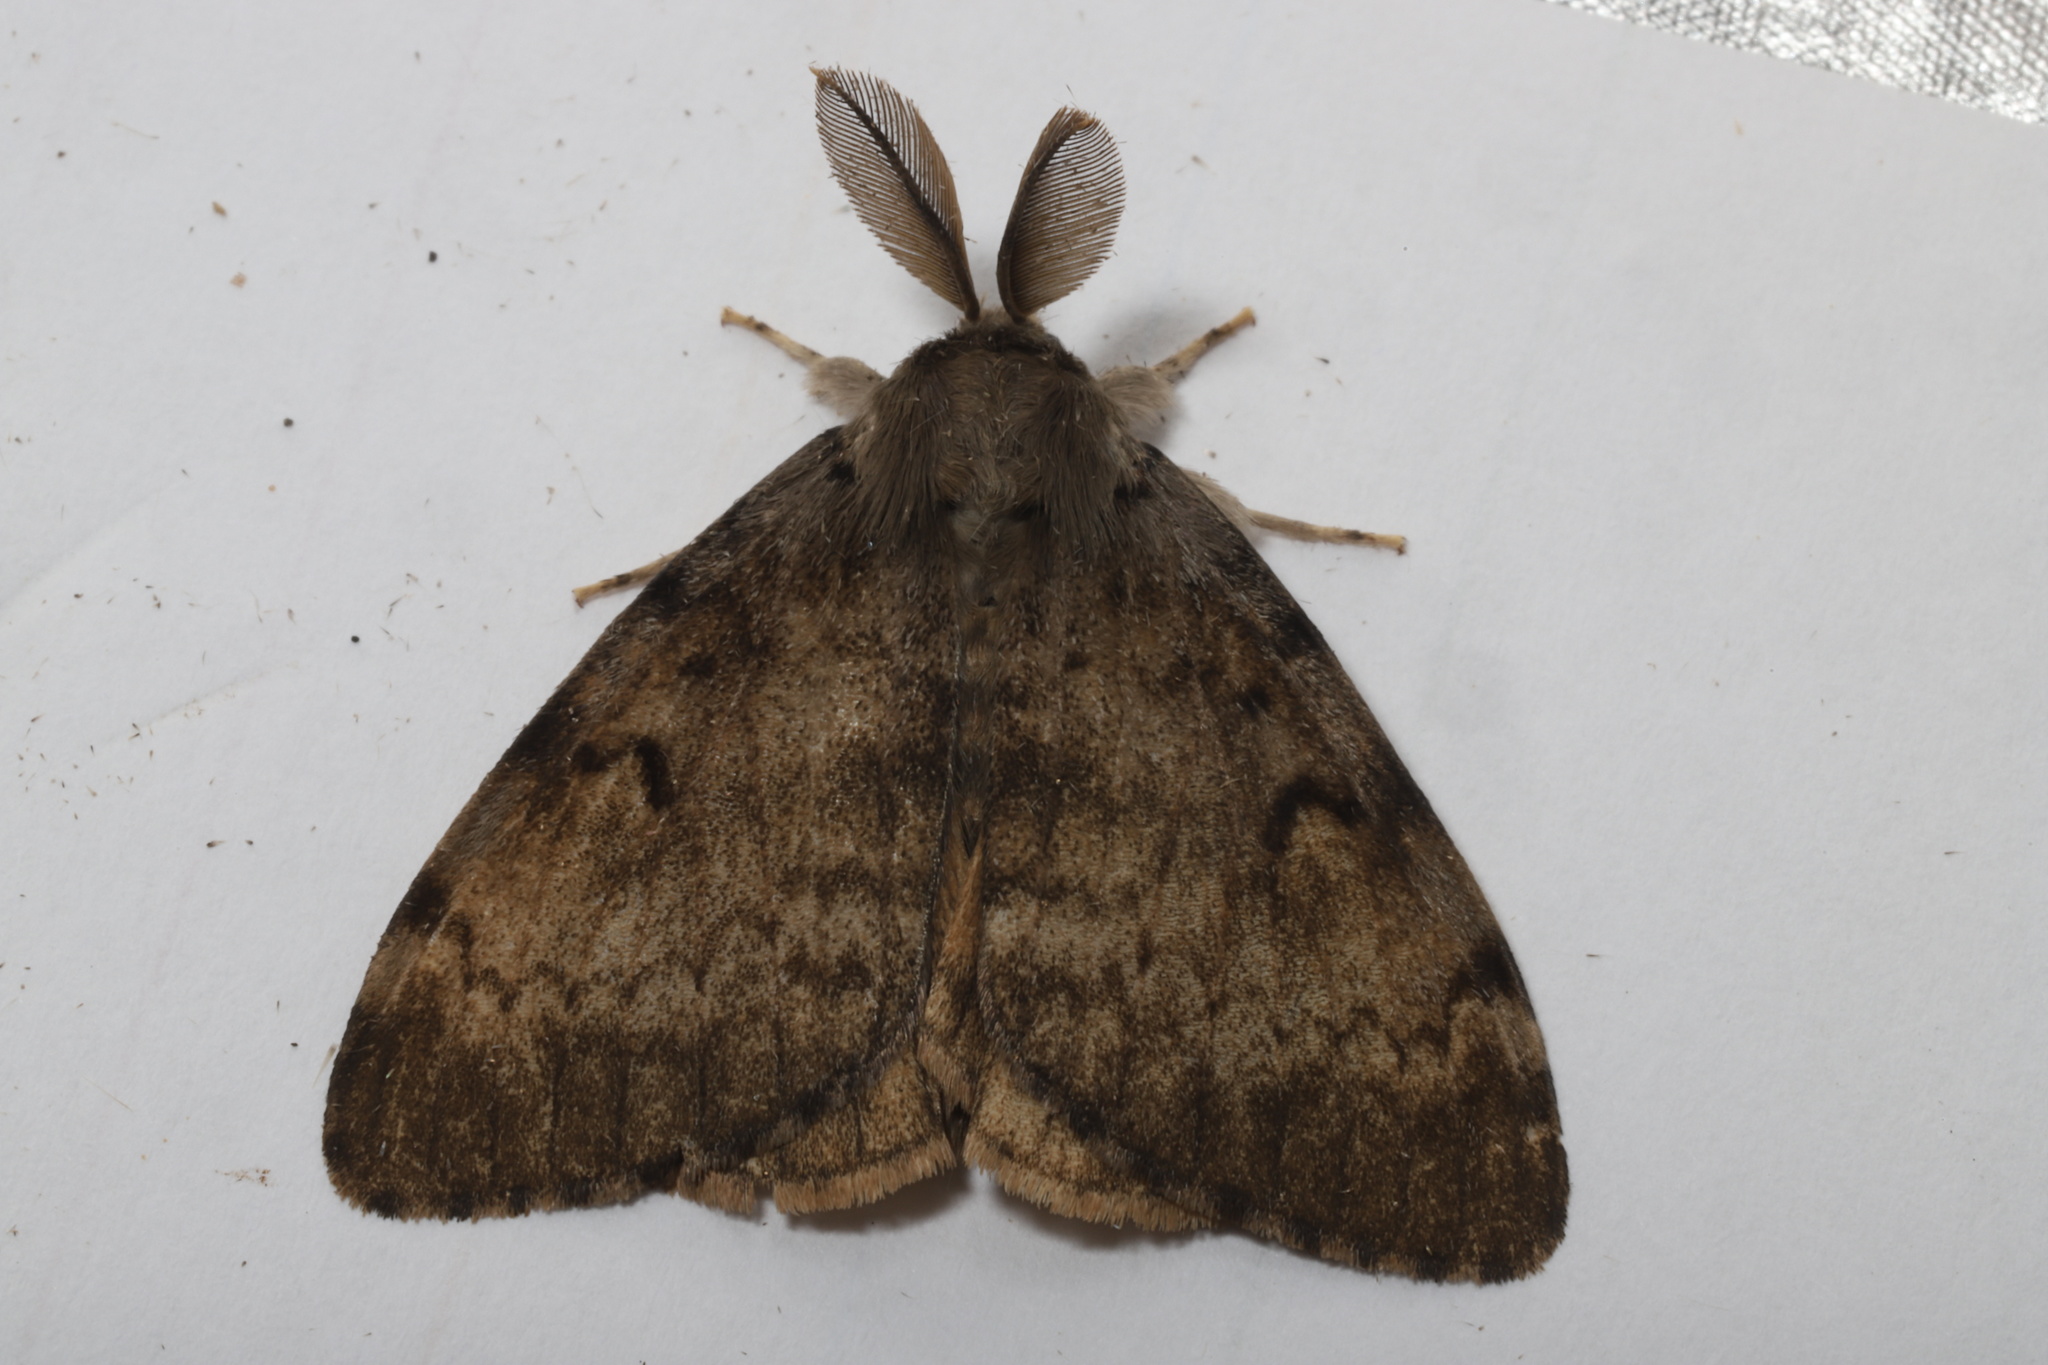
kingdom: Animalia
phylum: Arthropoda
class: Insecta
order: Lepidoptera
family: Erebidae
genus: Lymantria
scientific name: Lymantria dispar
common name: Gypsy moth
